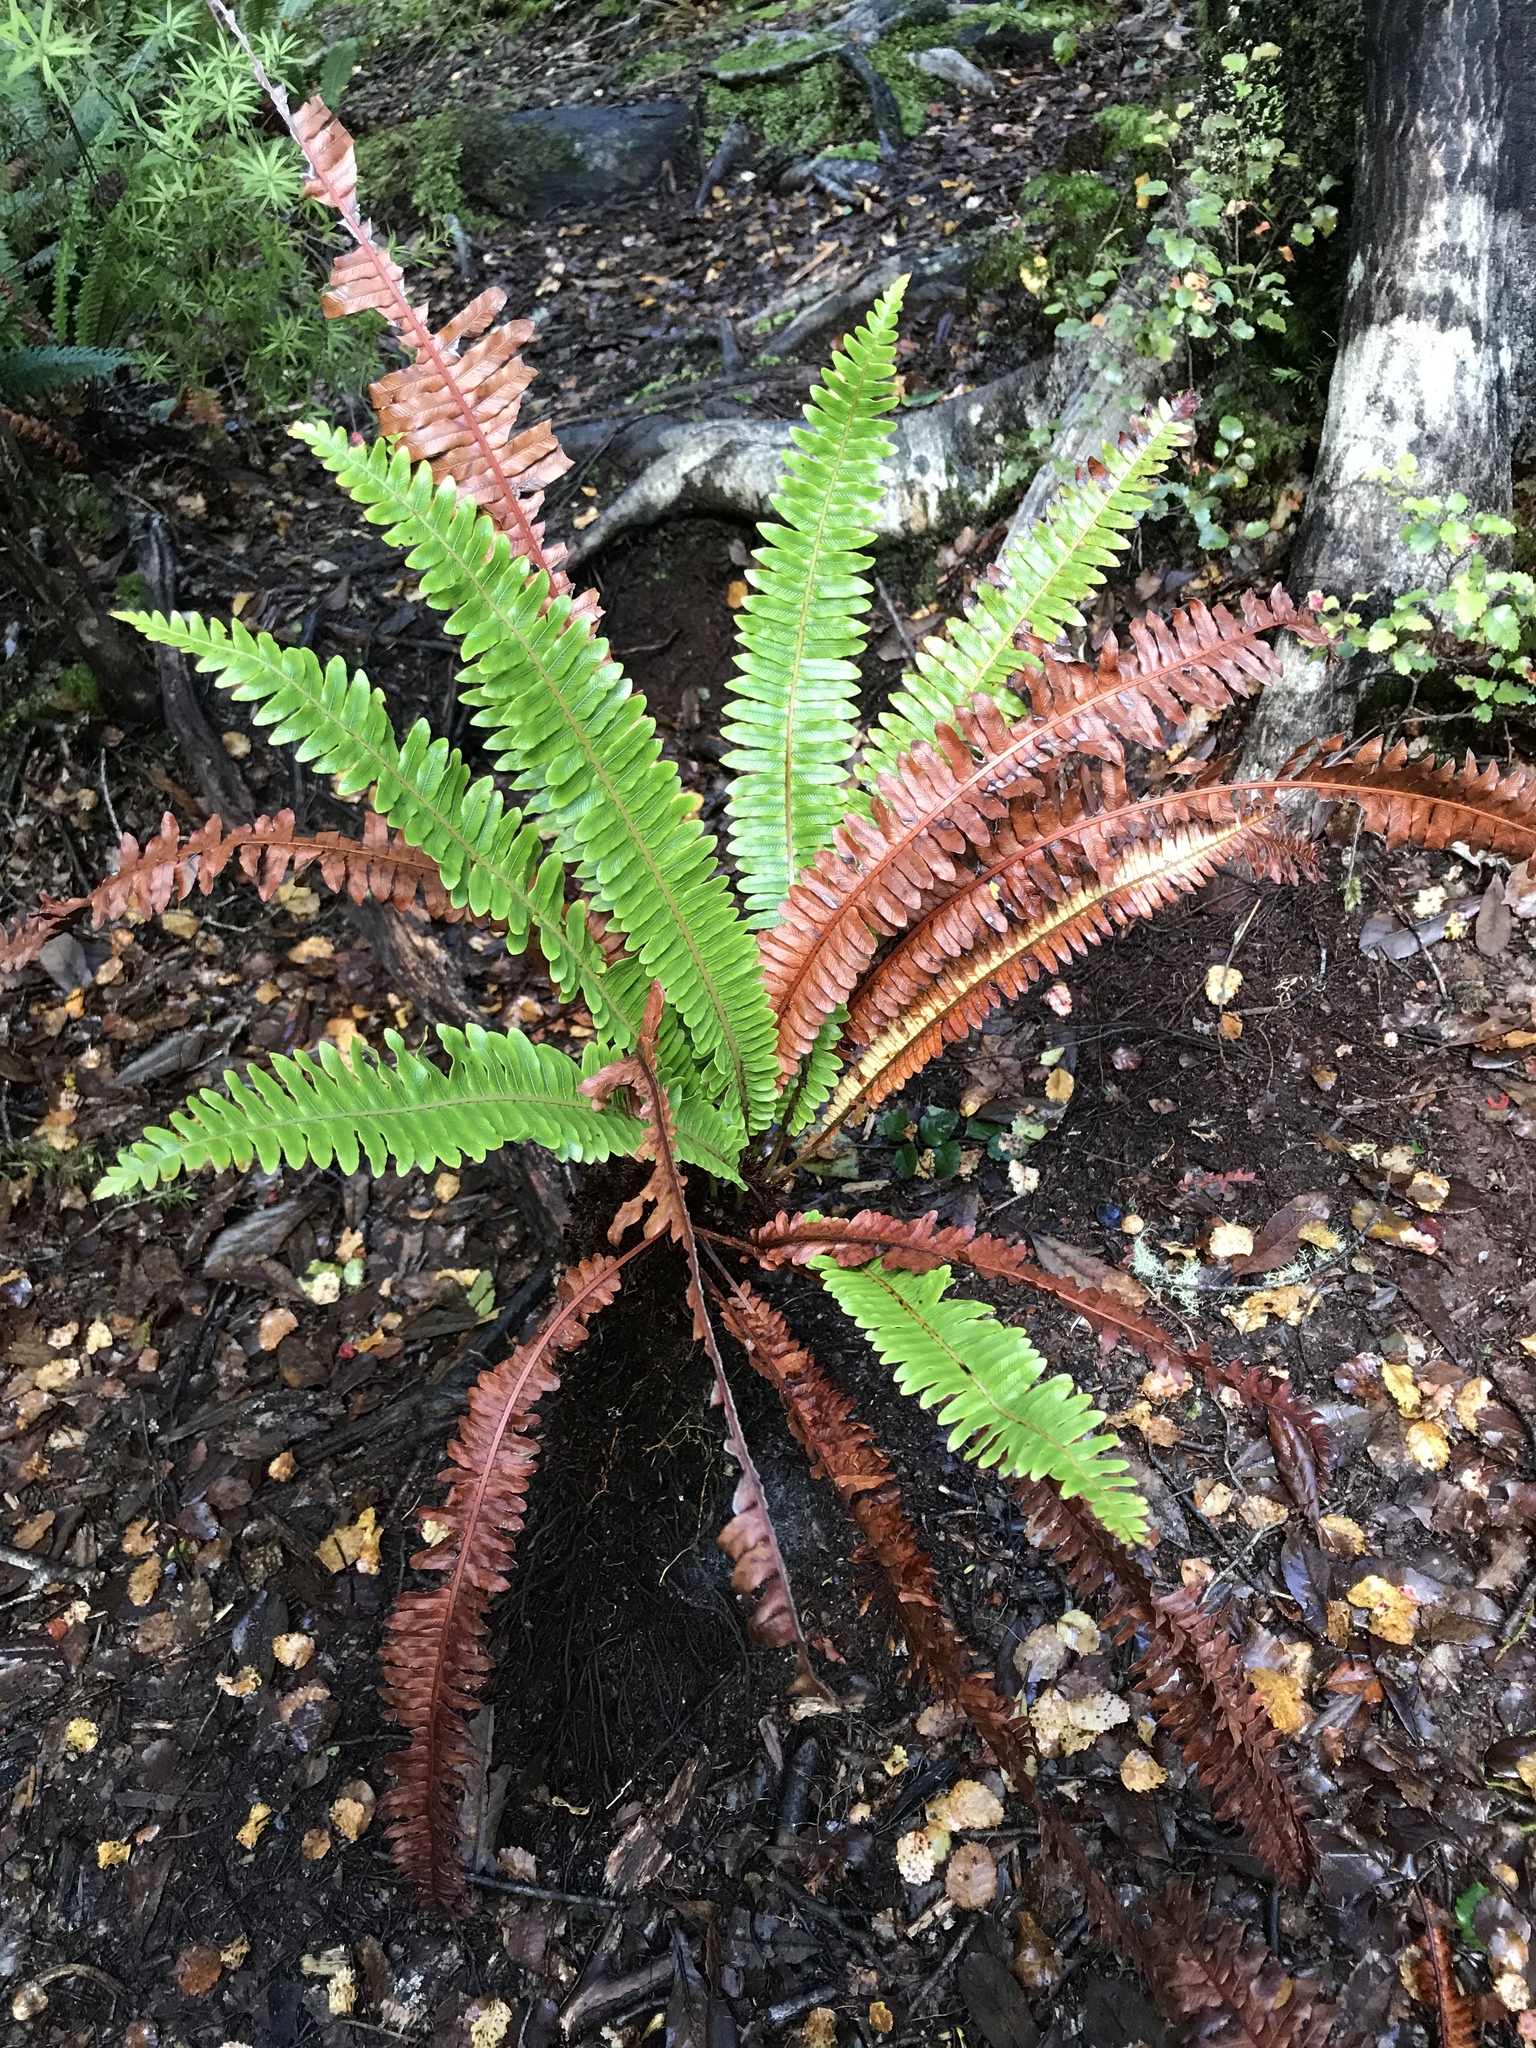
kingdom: Plantae
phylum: Tracheophyta
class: Polypodiopsida
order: Polypodiales
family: Blechnaceae
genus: Lomaria
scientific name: Lomaria discolor
